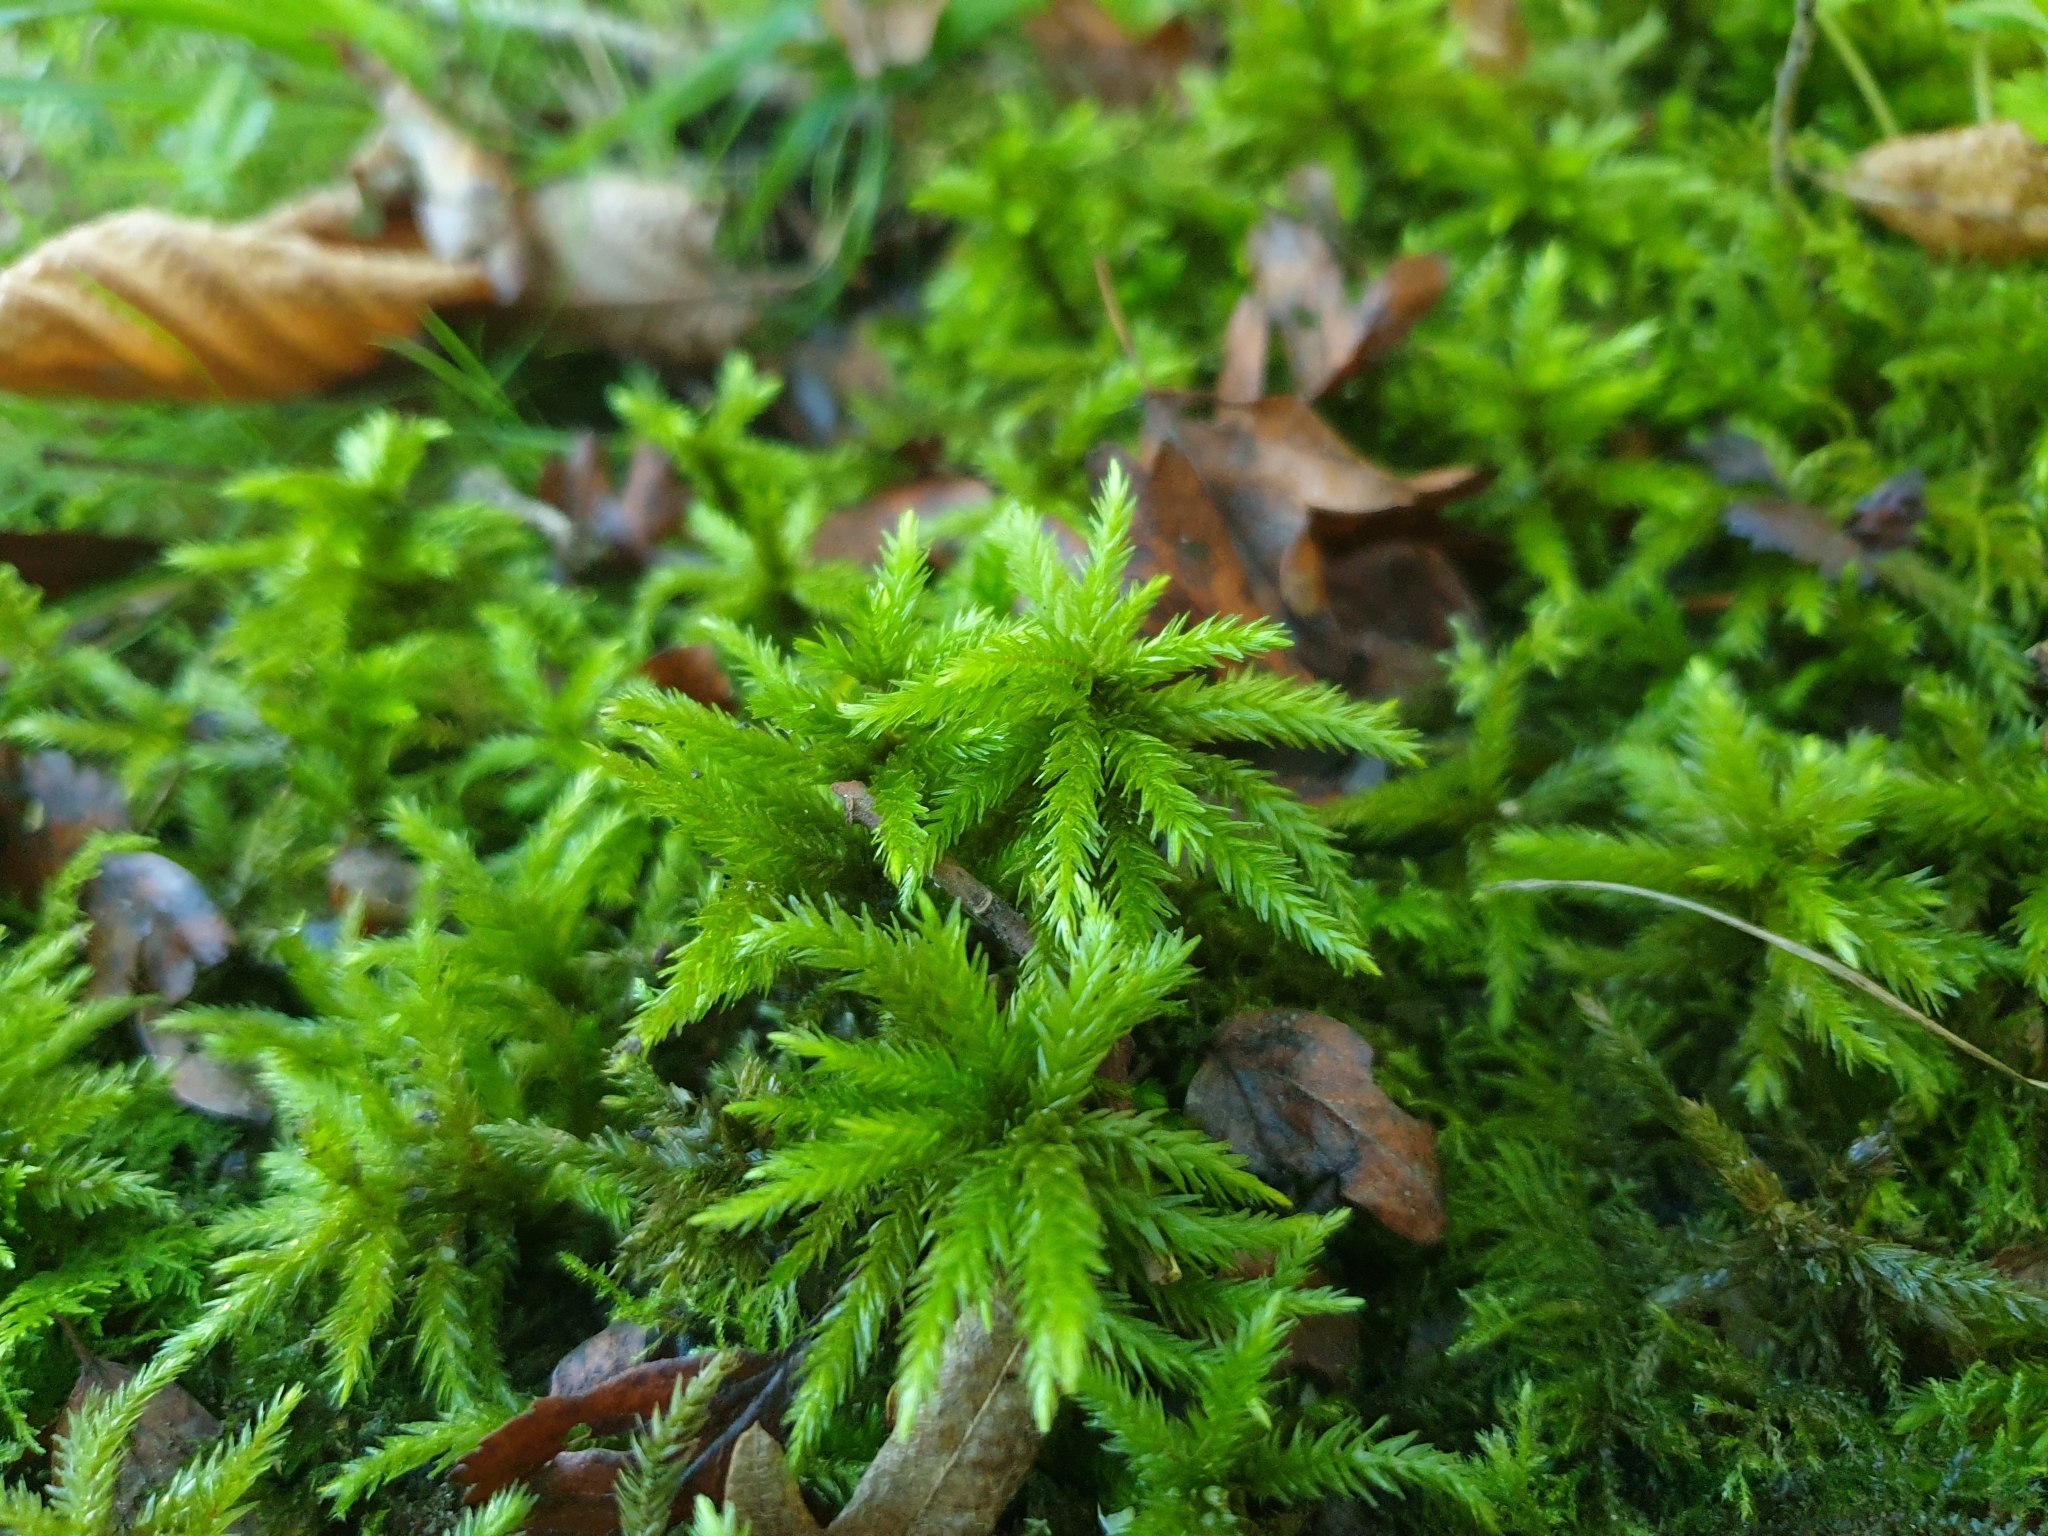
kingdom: Plantae
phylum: Bryophyta
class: Bryopsida
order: Hypnales
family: Climaciaceae
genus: Climacium
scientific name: Climacium dendroides
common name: Northern tree moss
